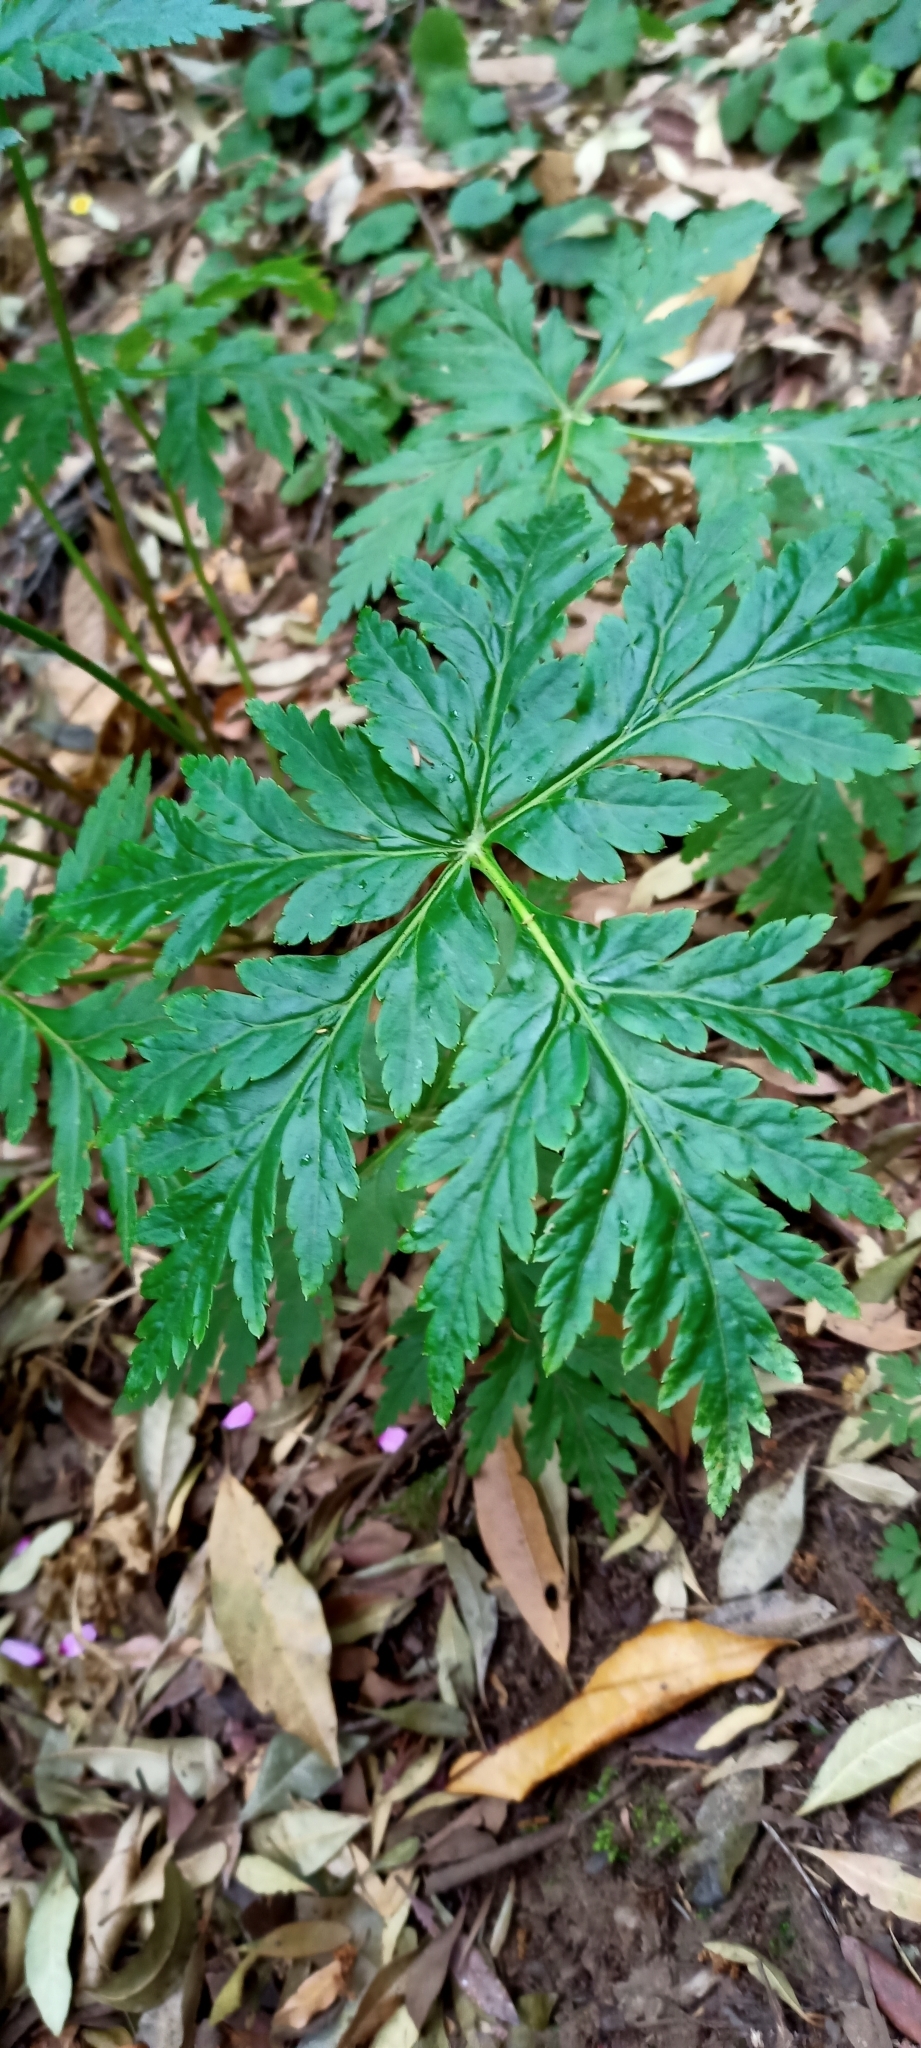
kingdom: Plantae
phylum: Tracheophyta
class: Magnoliopsida
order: Geraniales
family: Geraniaceae
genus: Geranium
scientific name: Geranium palmatum
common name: Canary island geranium
